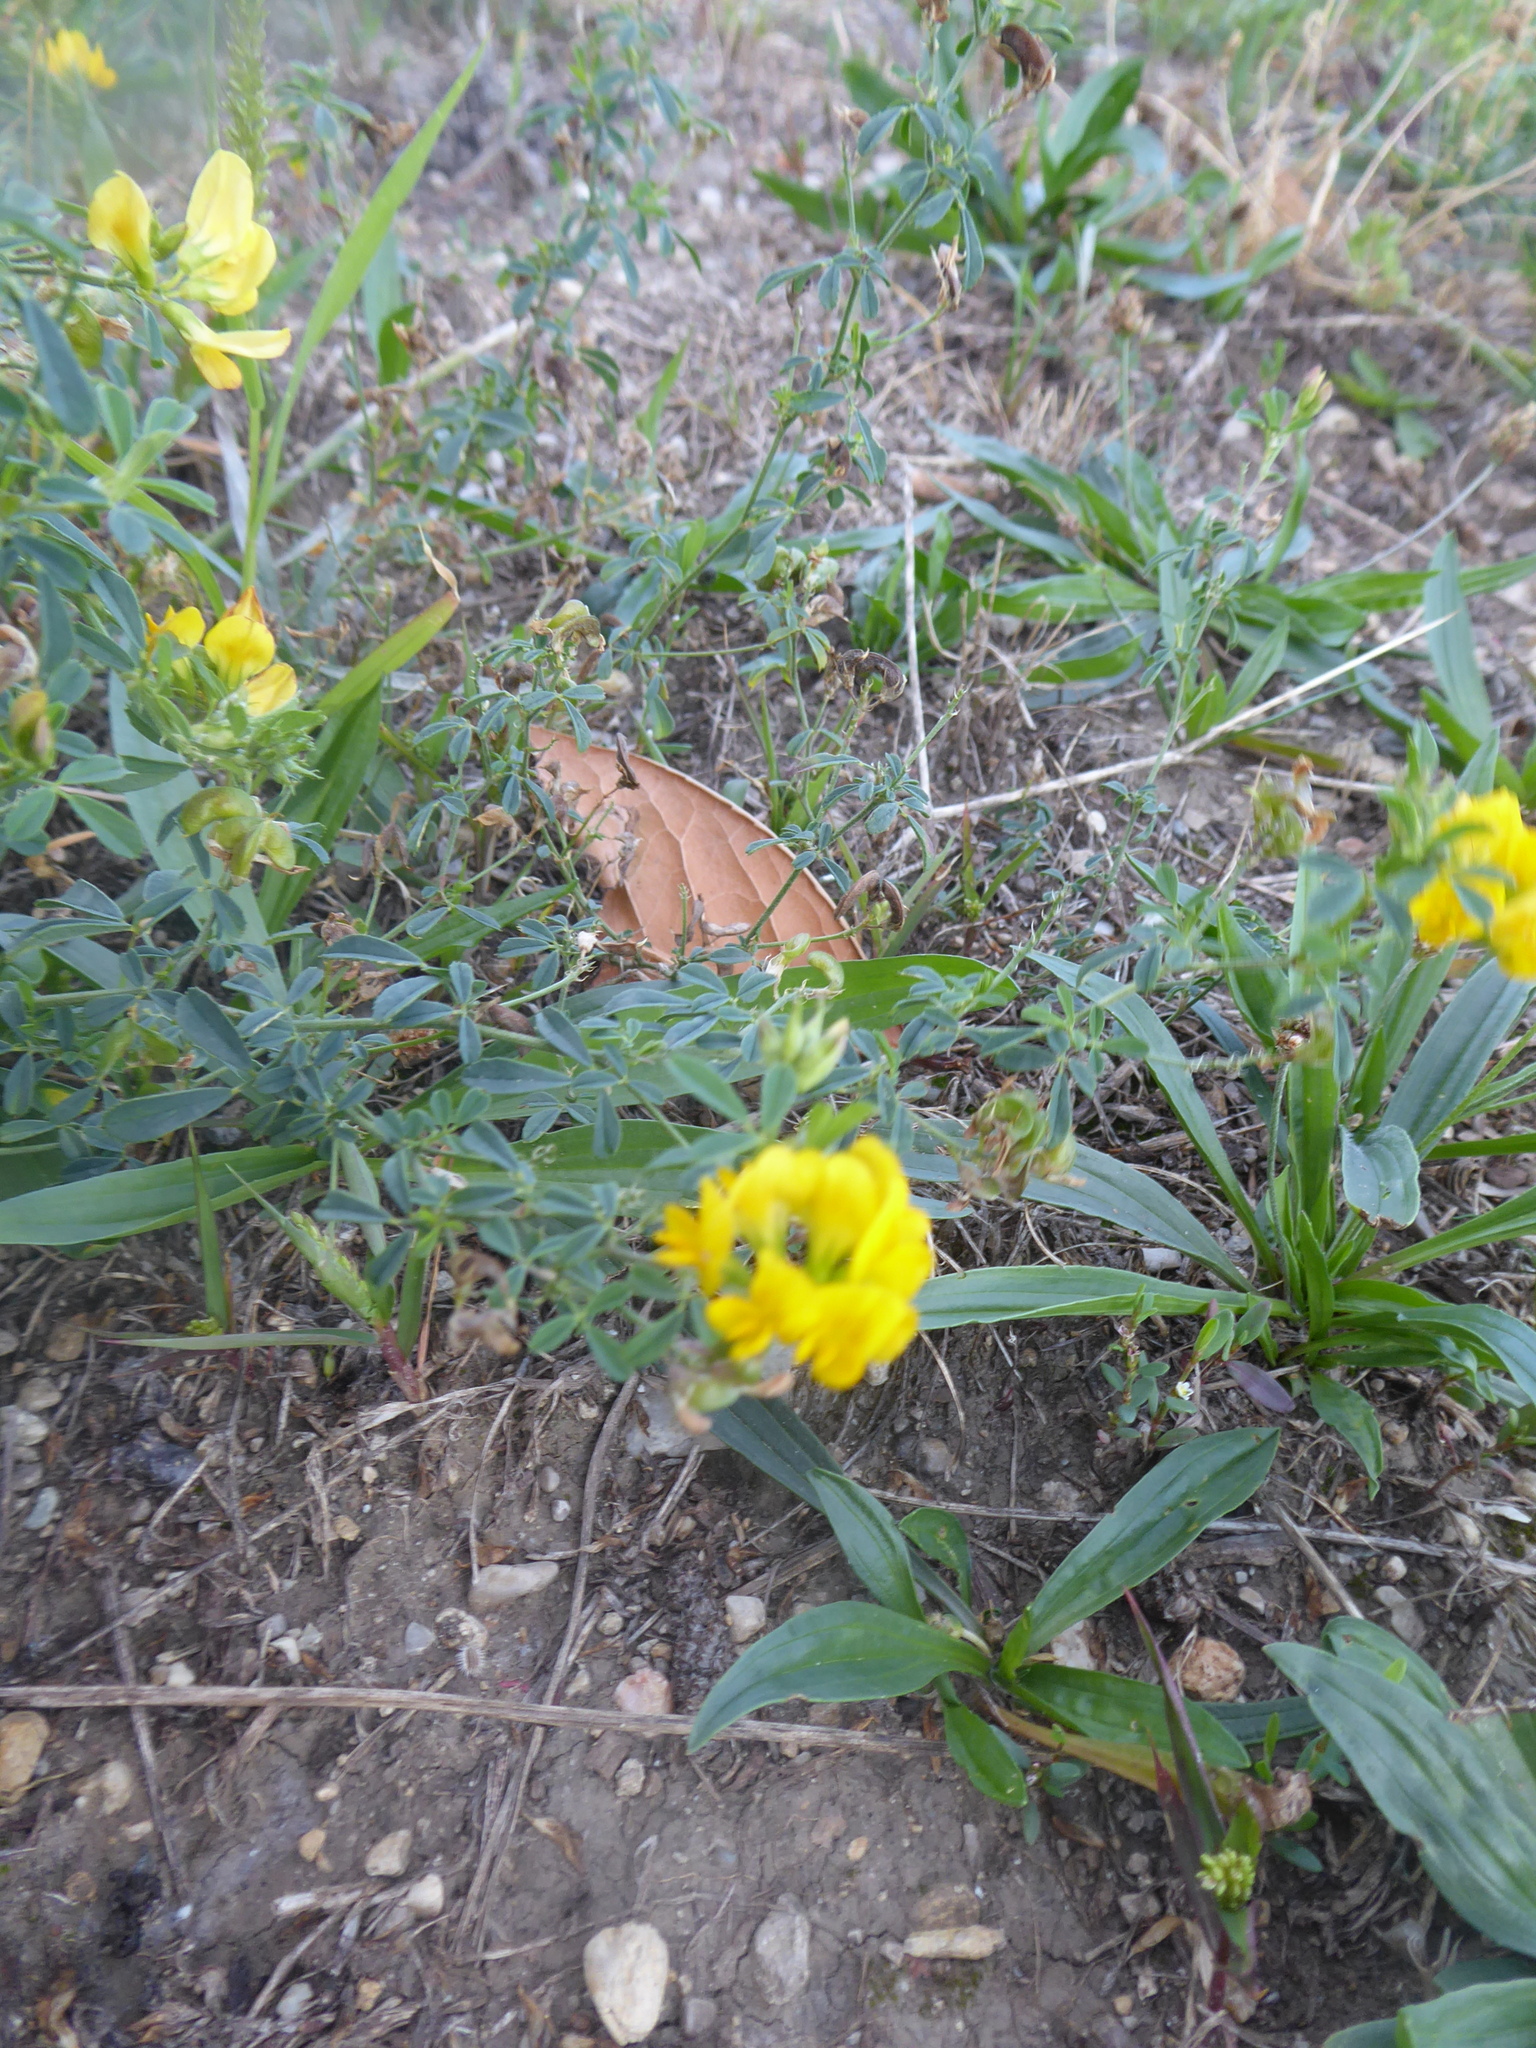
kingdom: Plantae
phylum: Tracheophyta
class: Magnoliopsida
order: Fabales
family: Fabaceae
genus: Medicago
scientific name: Medicago falcata
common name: Sickle medick
